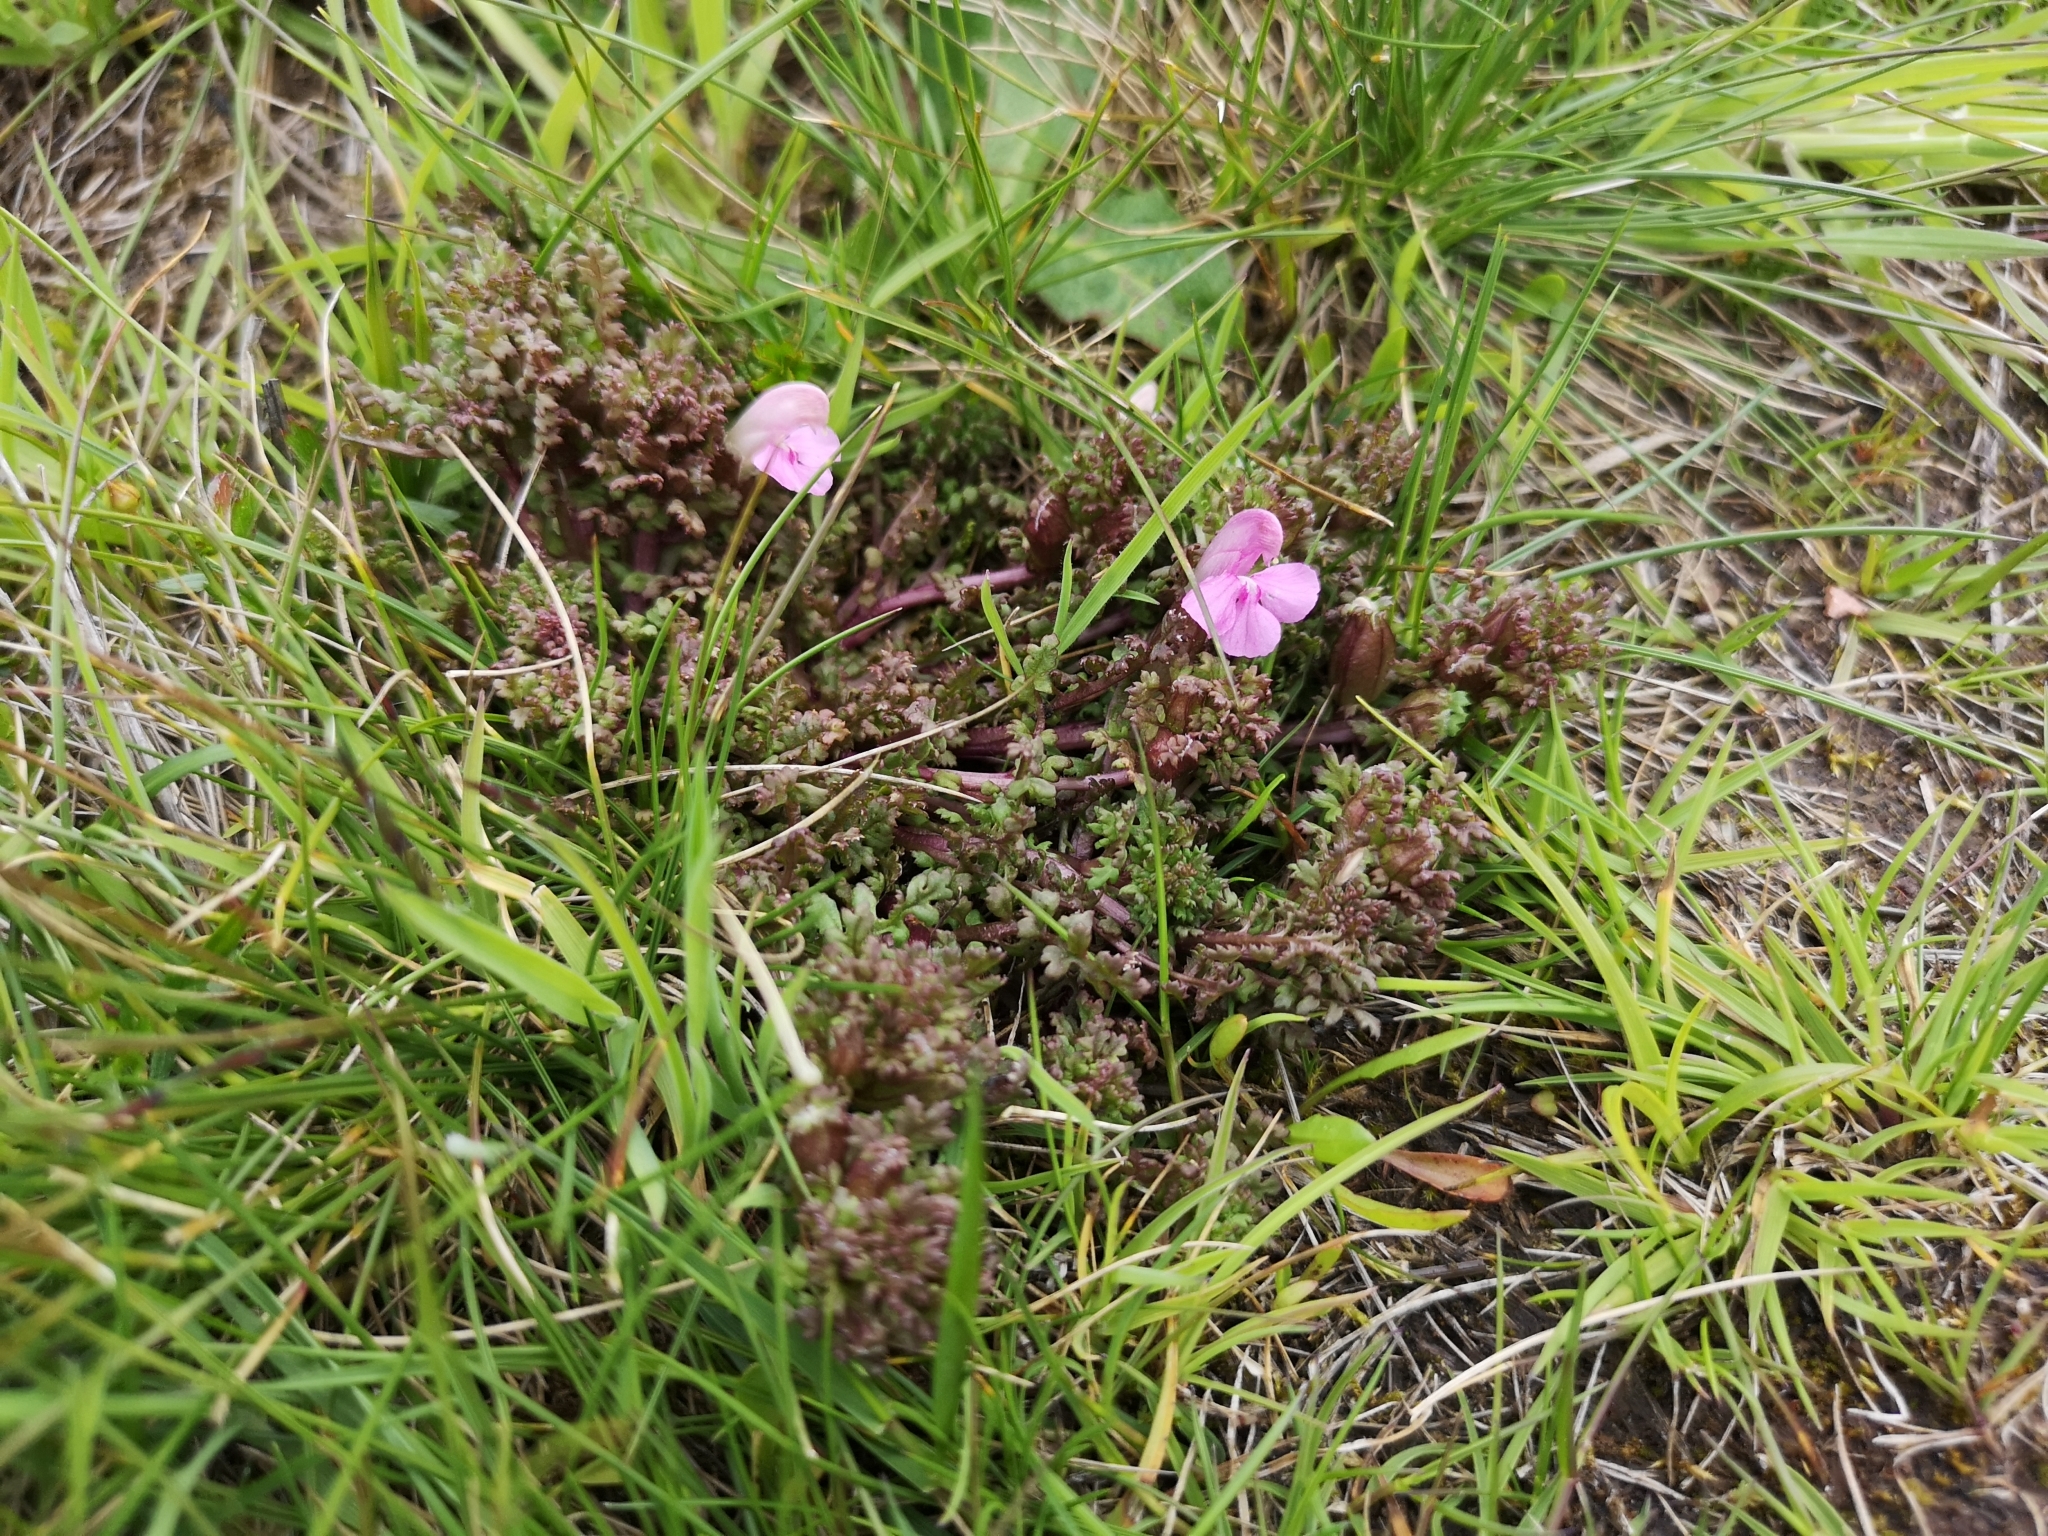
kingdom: Plantae
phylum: Tracheophyta
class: Magnoliopsida
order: Lamiales
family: Orobanchaceae
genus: Pedicularis
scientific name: Pedicularis sylvatica
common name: Lousewort
